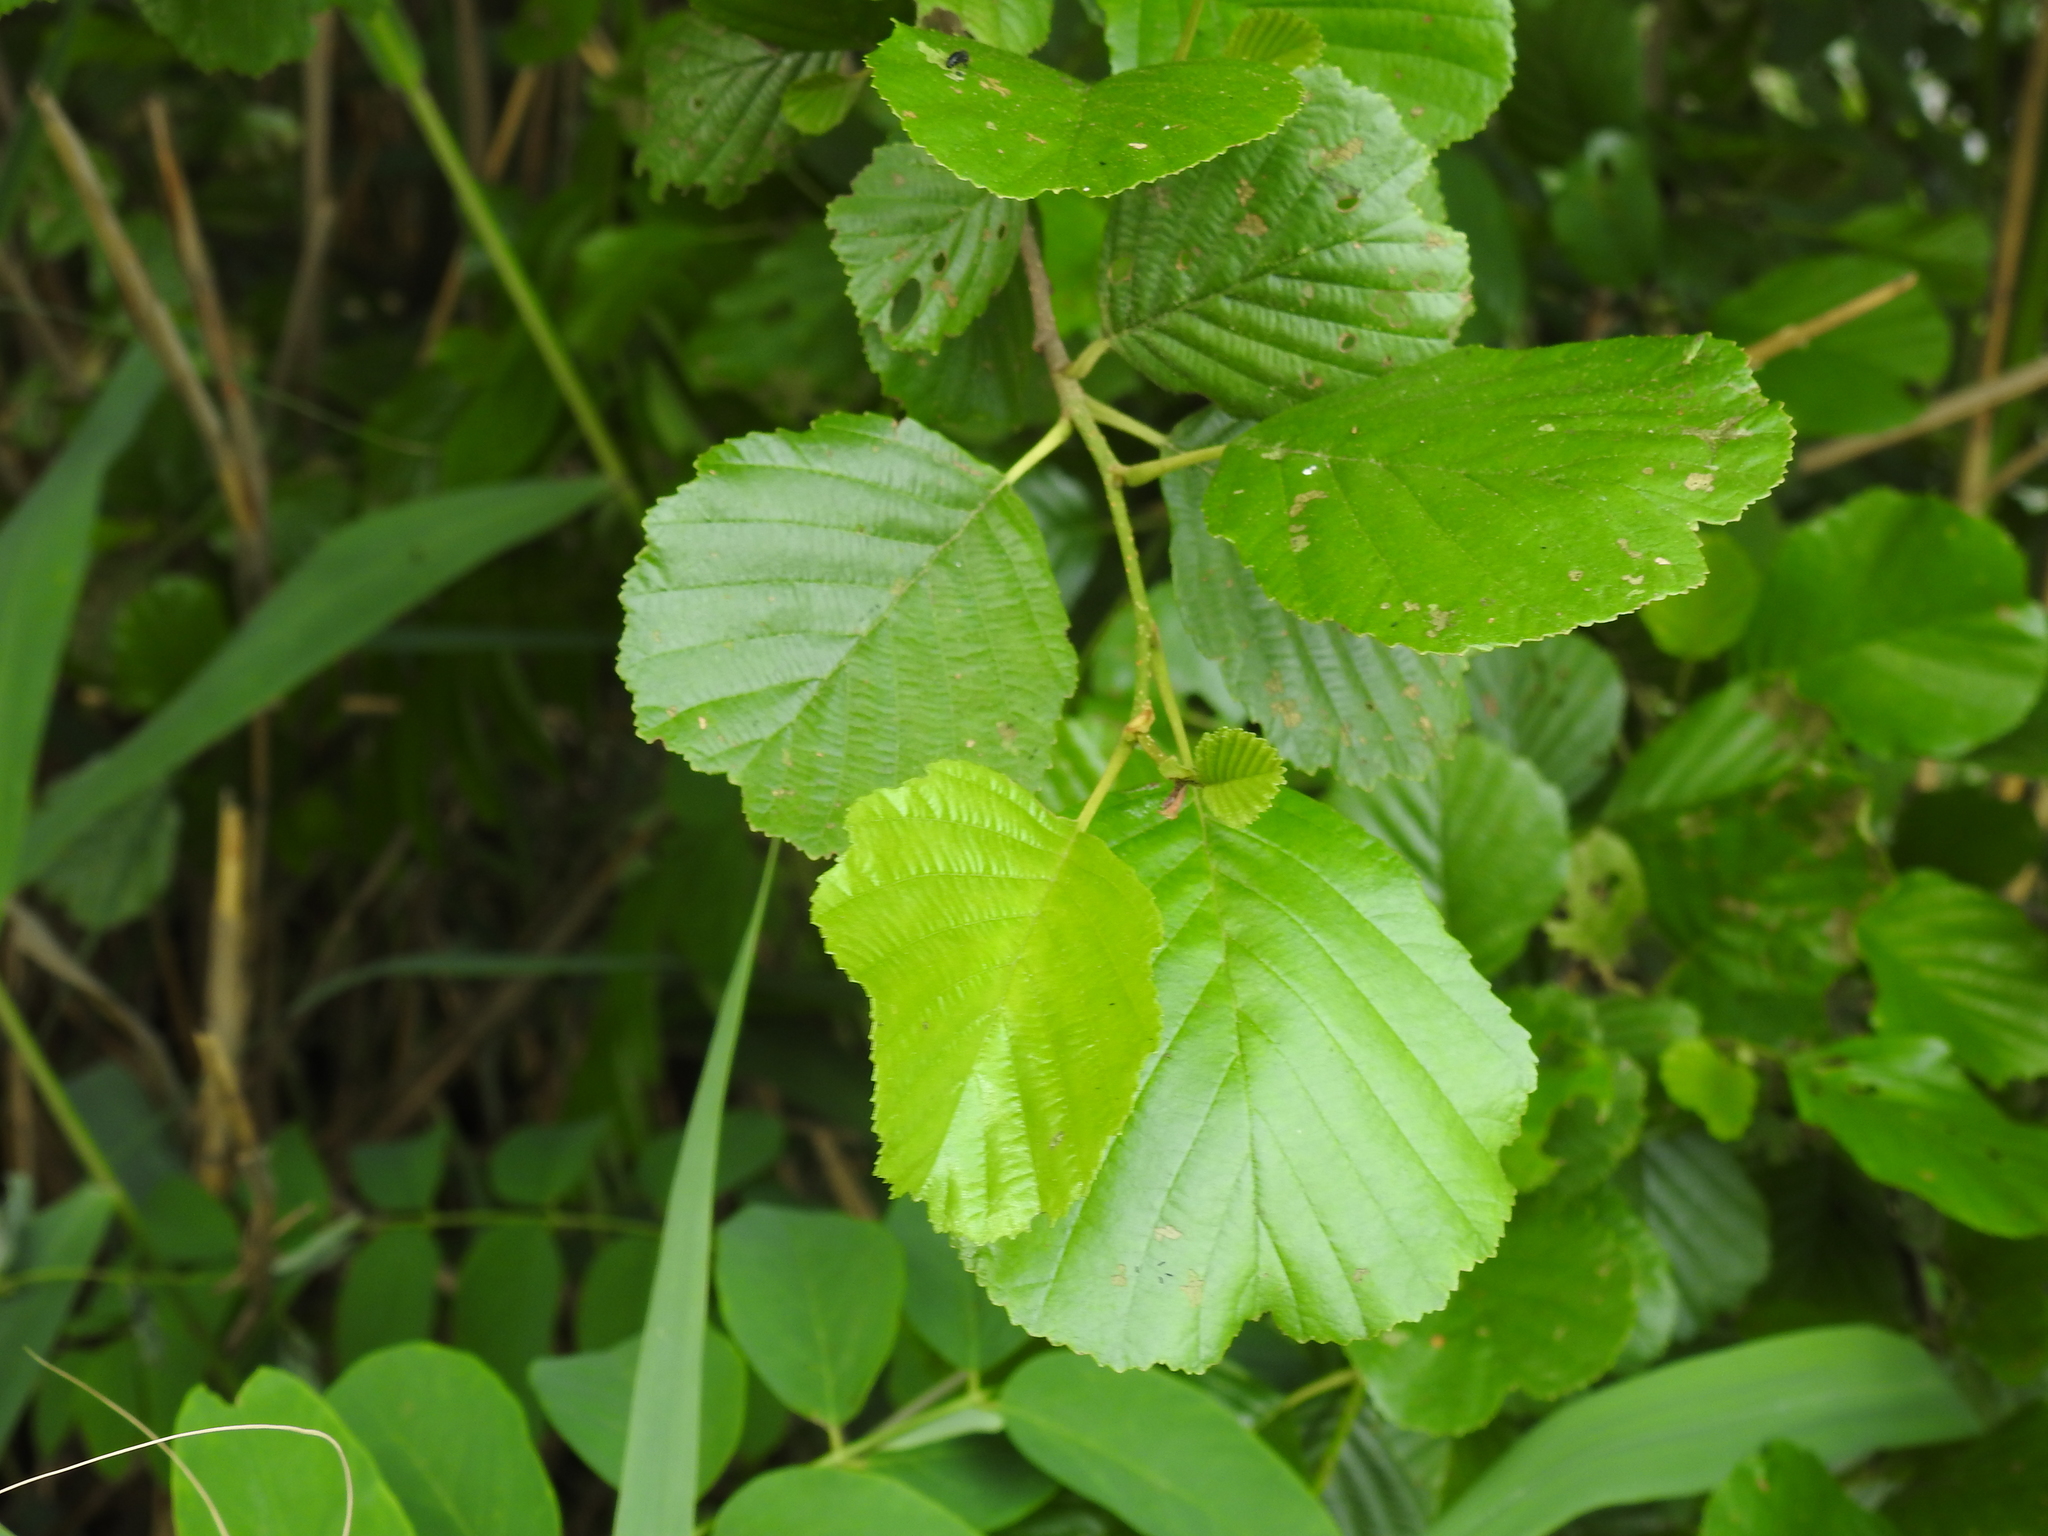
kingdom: Plantae
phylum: Tracheophyta
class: Magnoliopsida
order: Fagales
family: Betulaceae
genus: Alnus
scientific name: Alnus glutinosa
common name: Black alder
